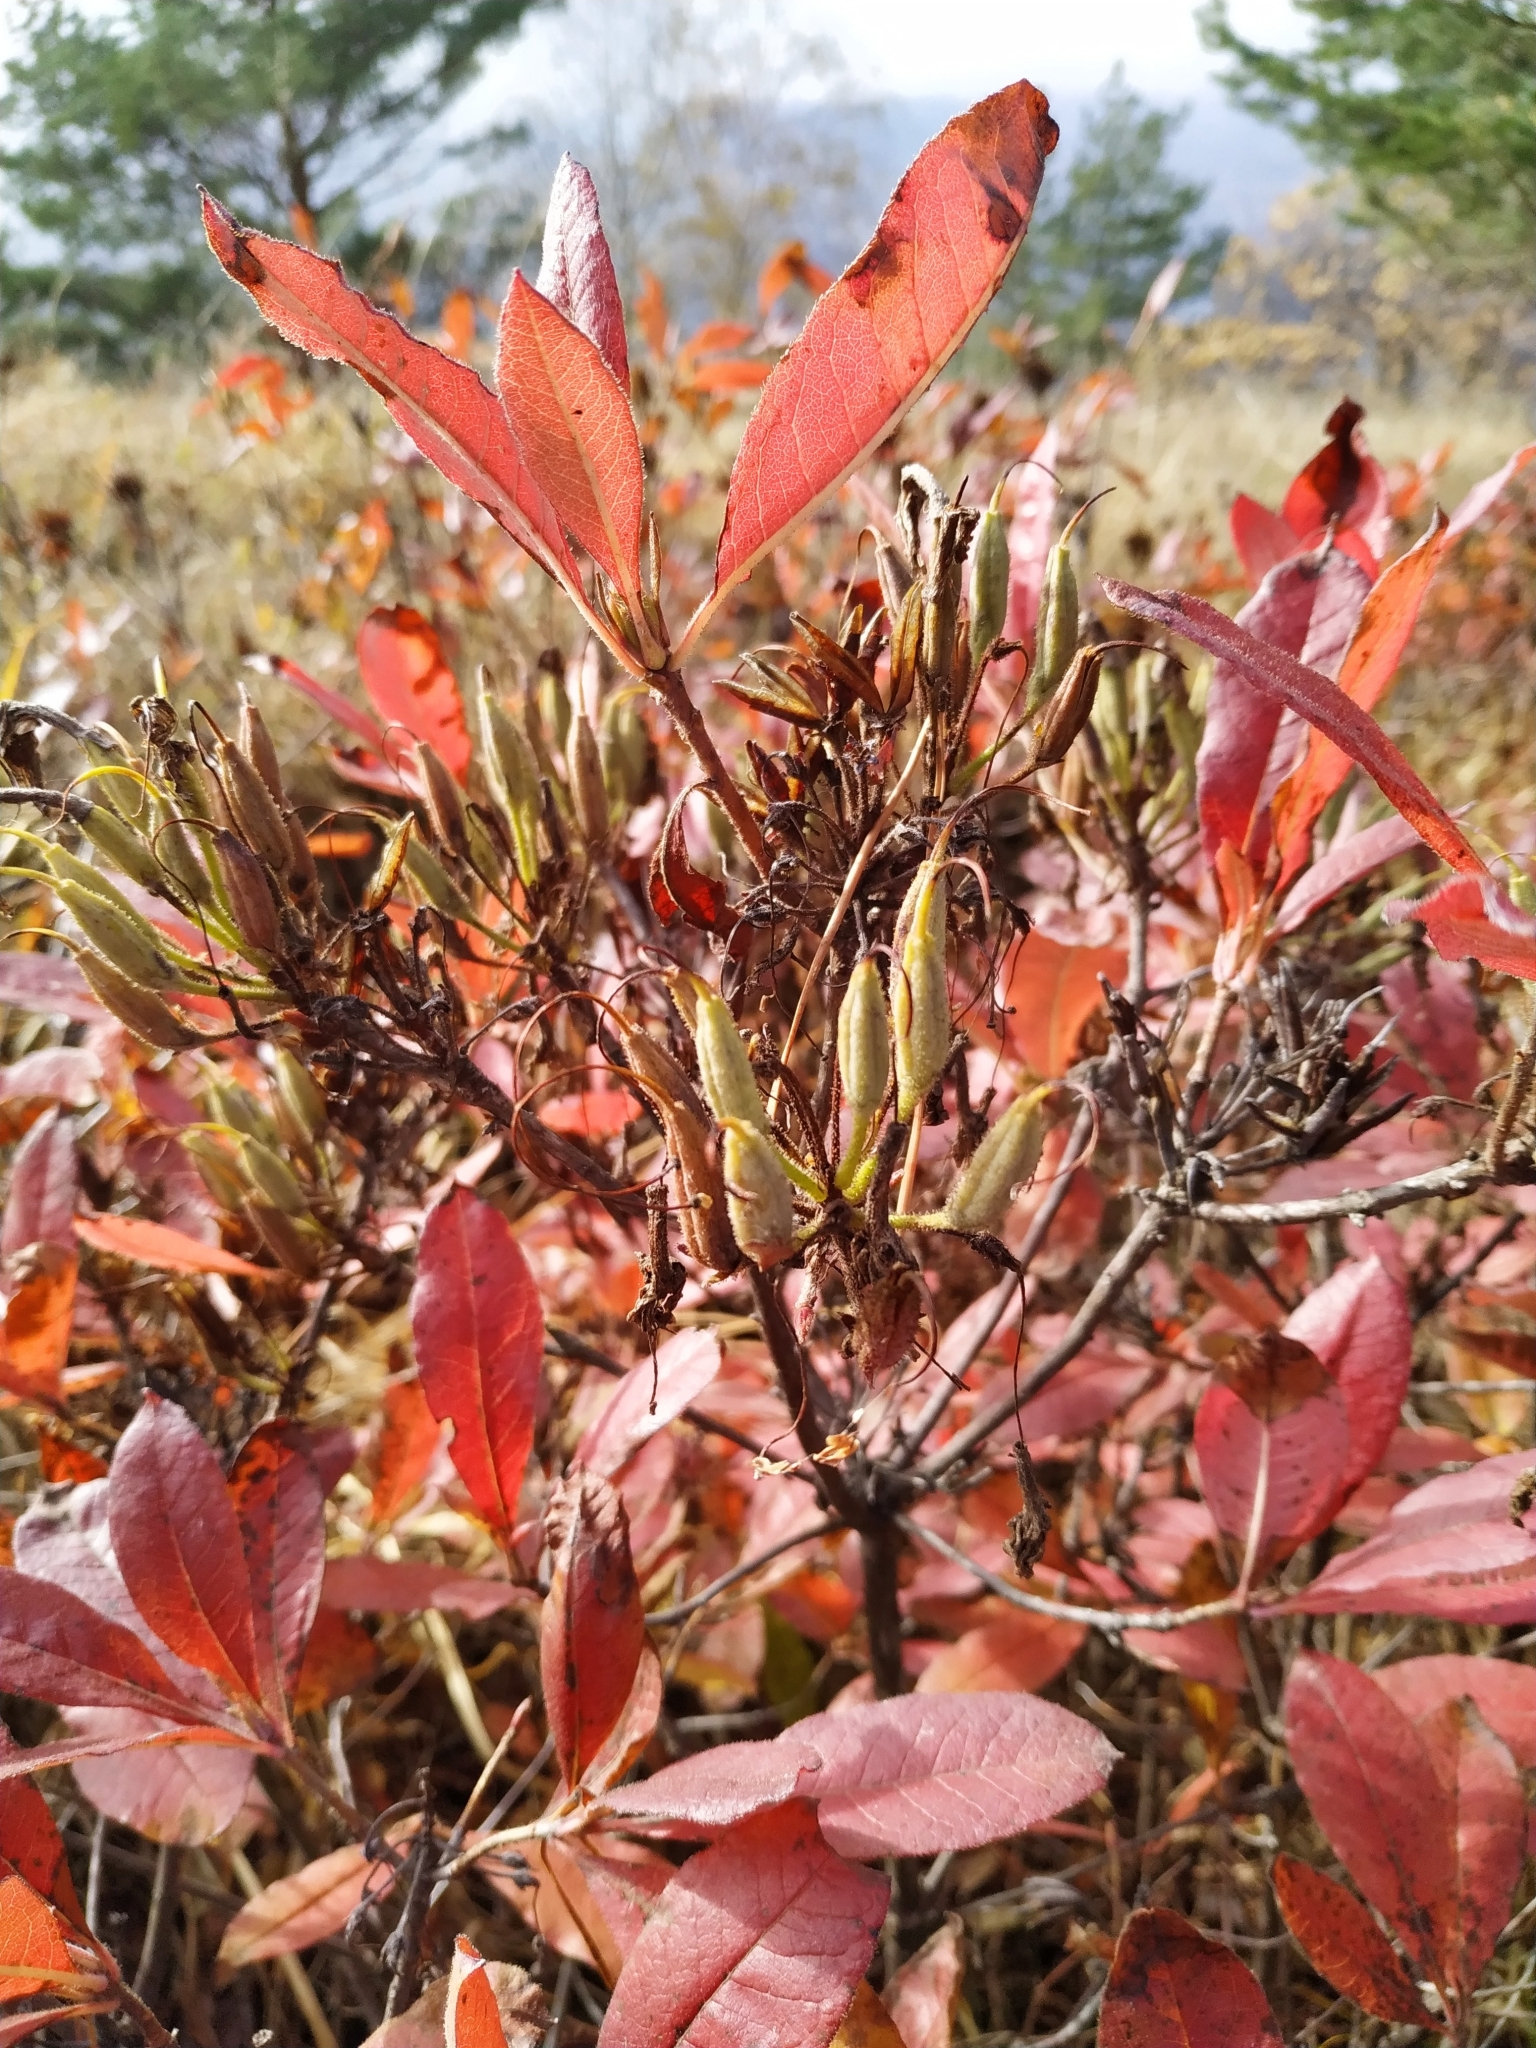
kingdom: Plantae
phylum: Tracheophyta
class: Magnoliopsida
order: Ericales
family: Ericaceae
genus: Rhododendron
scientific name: Rhododendron luteum
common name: Yellow azalea
